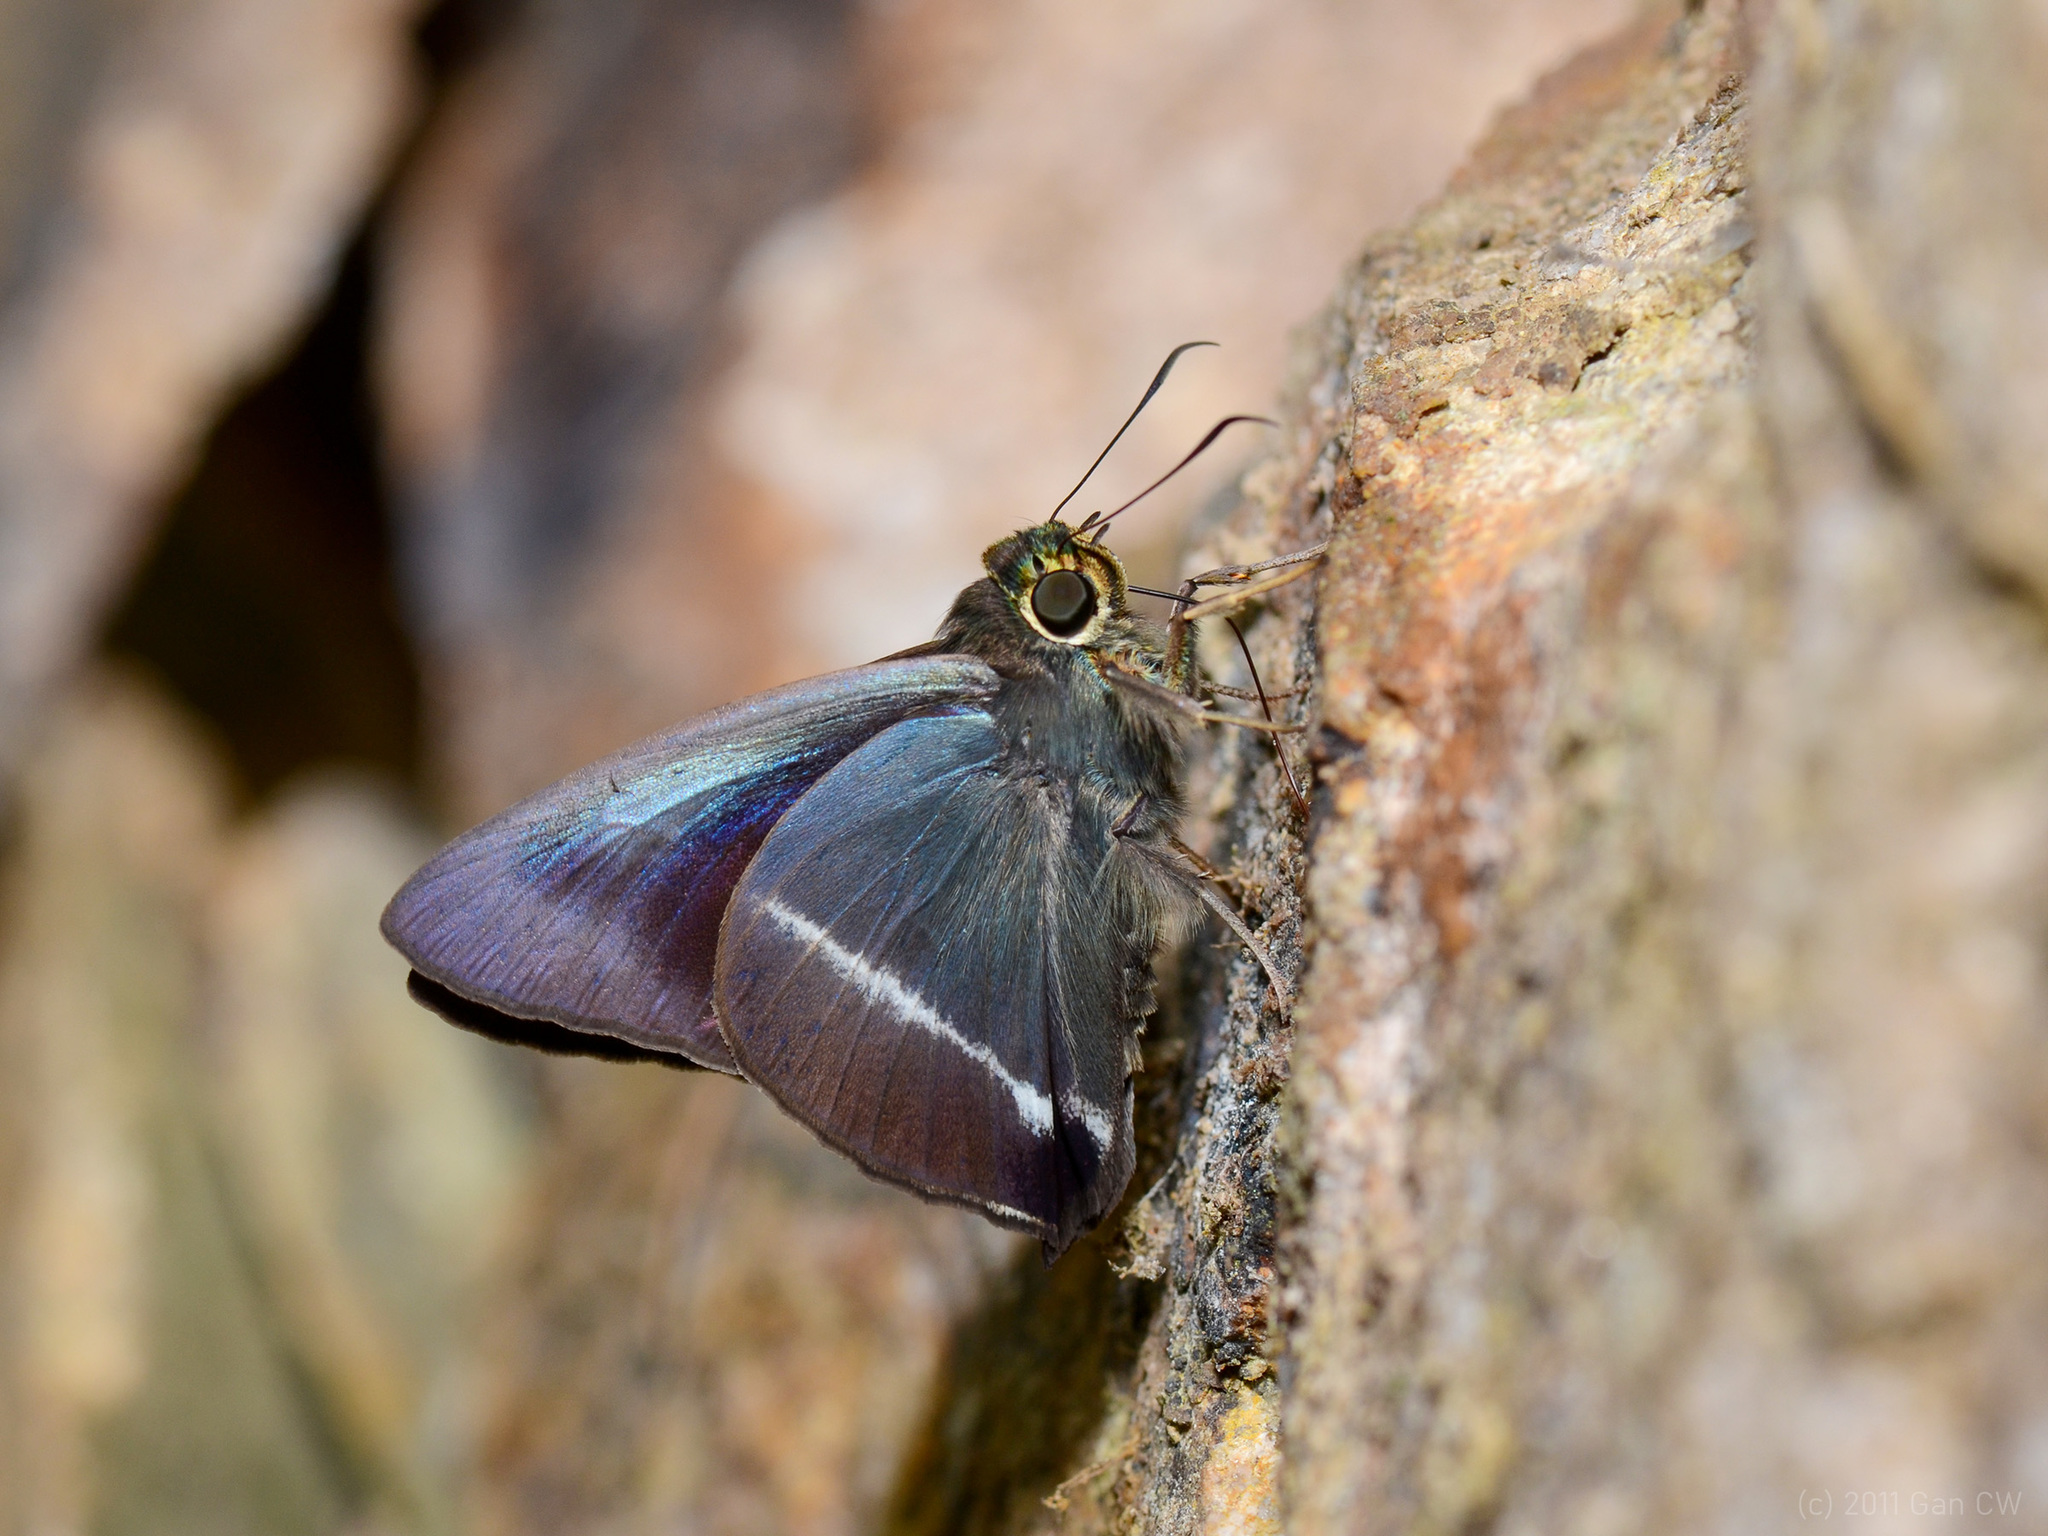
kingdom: Animalia
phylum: Arthropoda
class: Insecta
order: Lepidoptera
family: Hesperiidae
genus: Hasora
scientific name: Hasora taminatus
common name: White banded awl
